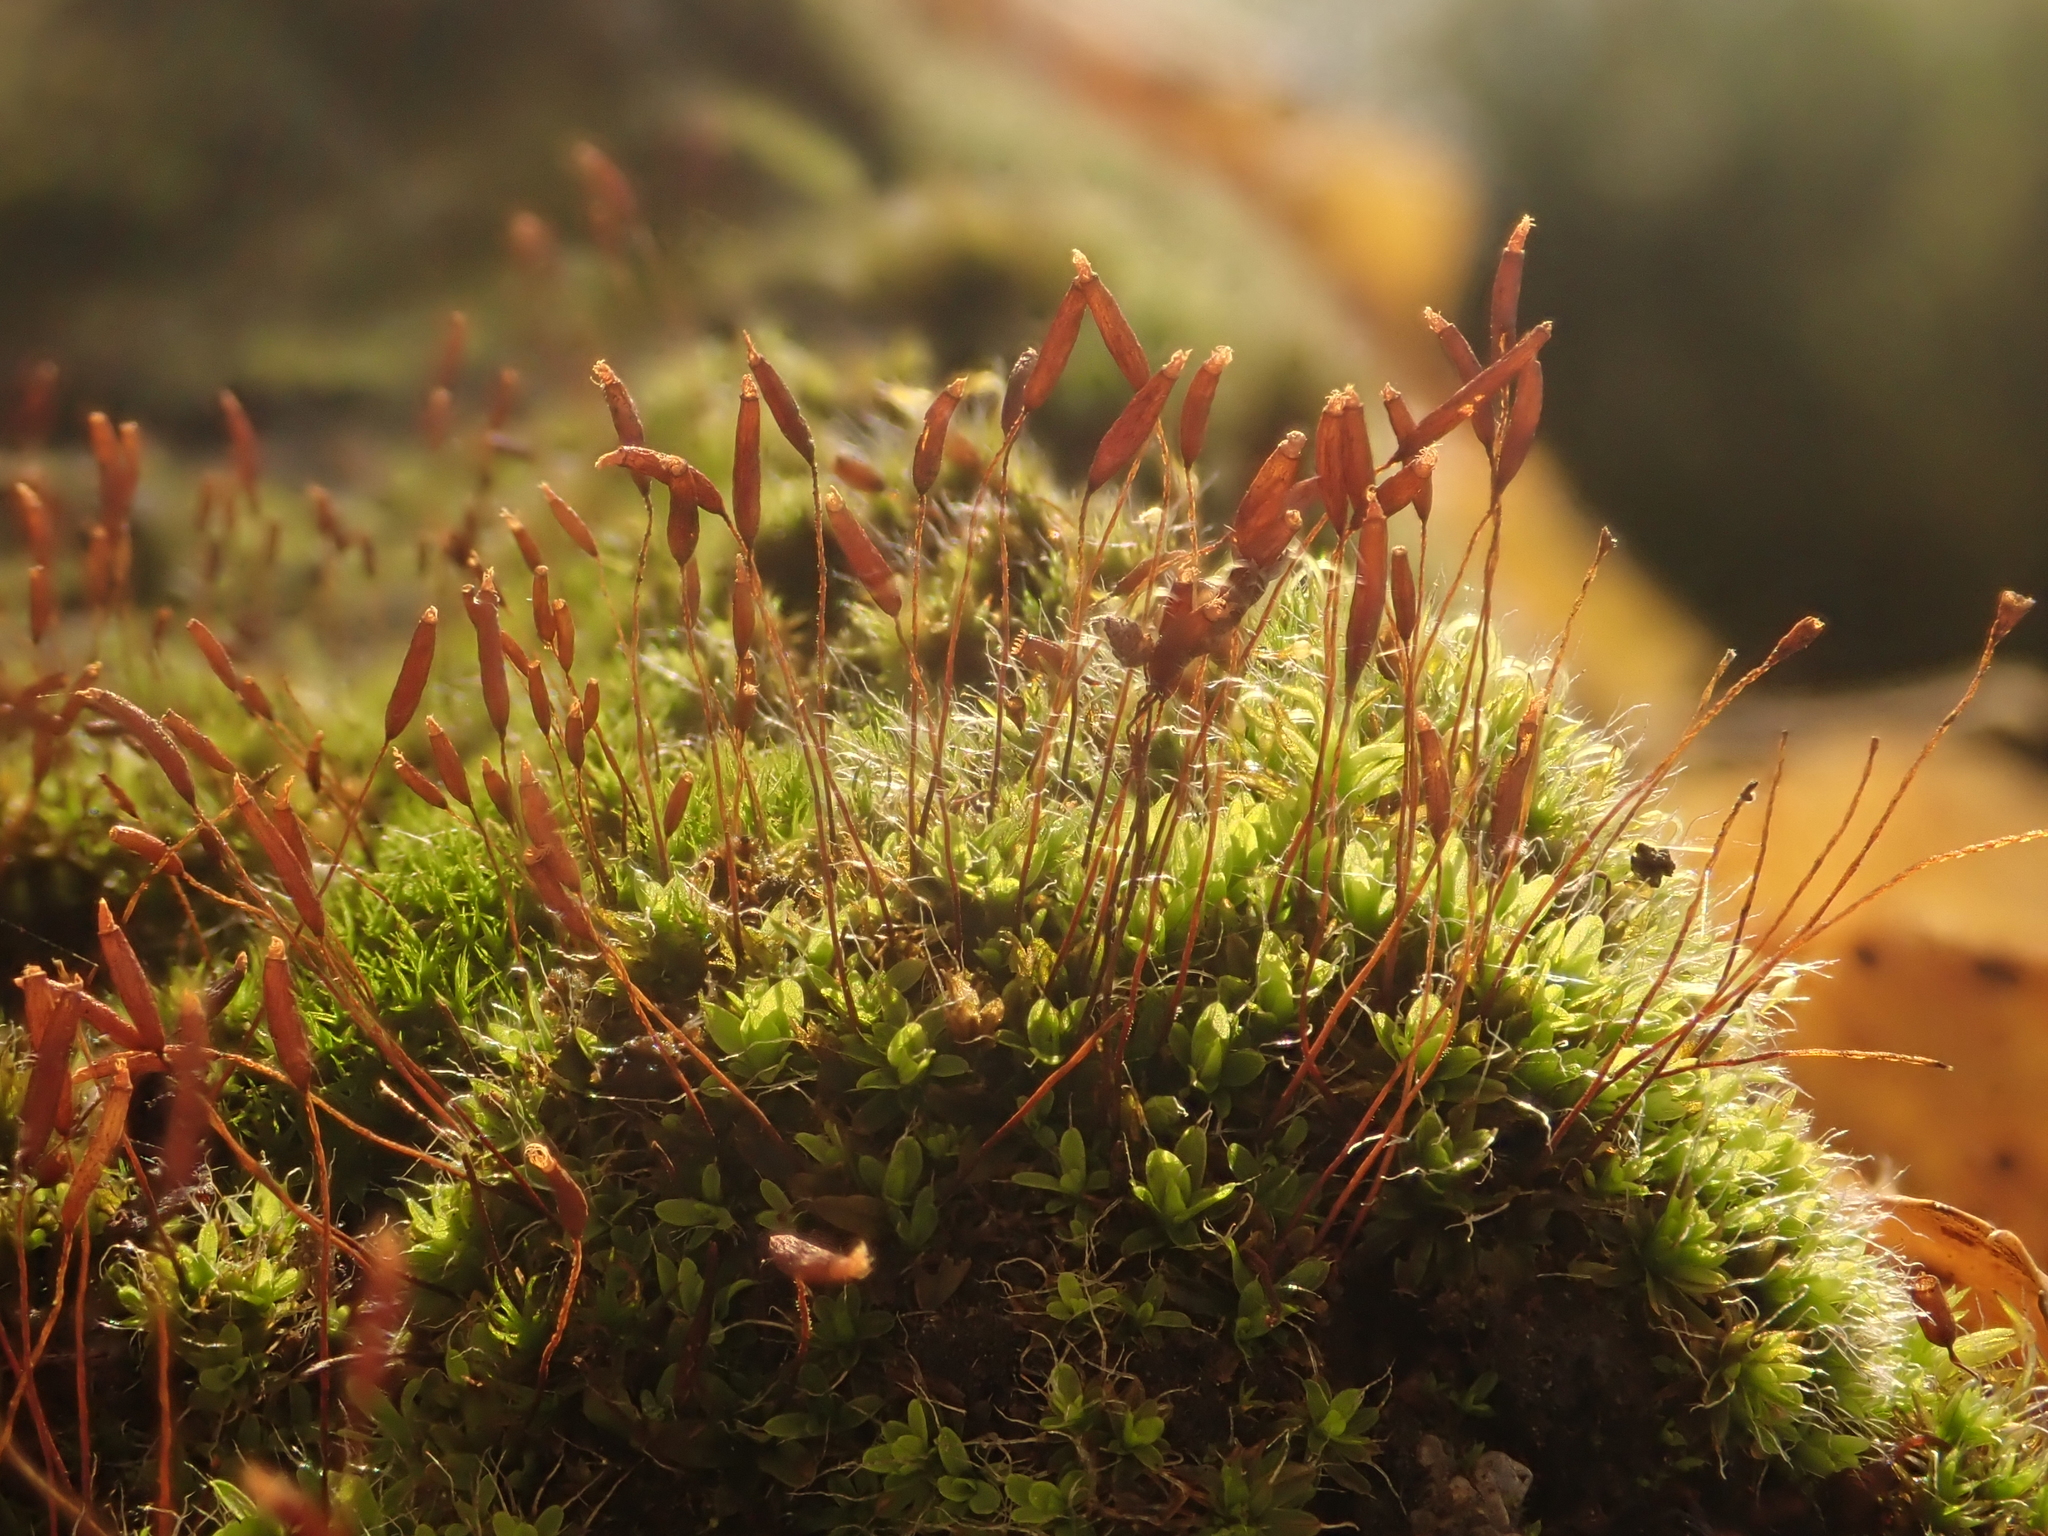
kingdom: Plantae
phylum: Bryophyta
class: Bryopsida
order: Pottiales
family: Pottiaceae
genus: Tortula
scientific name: Tortula muralis
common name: Wall screw-moss
